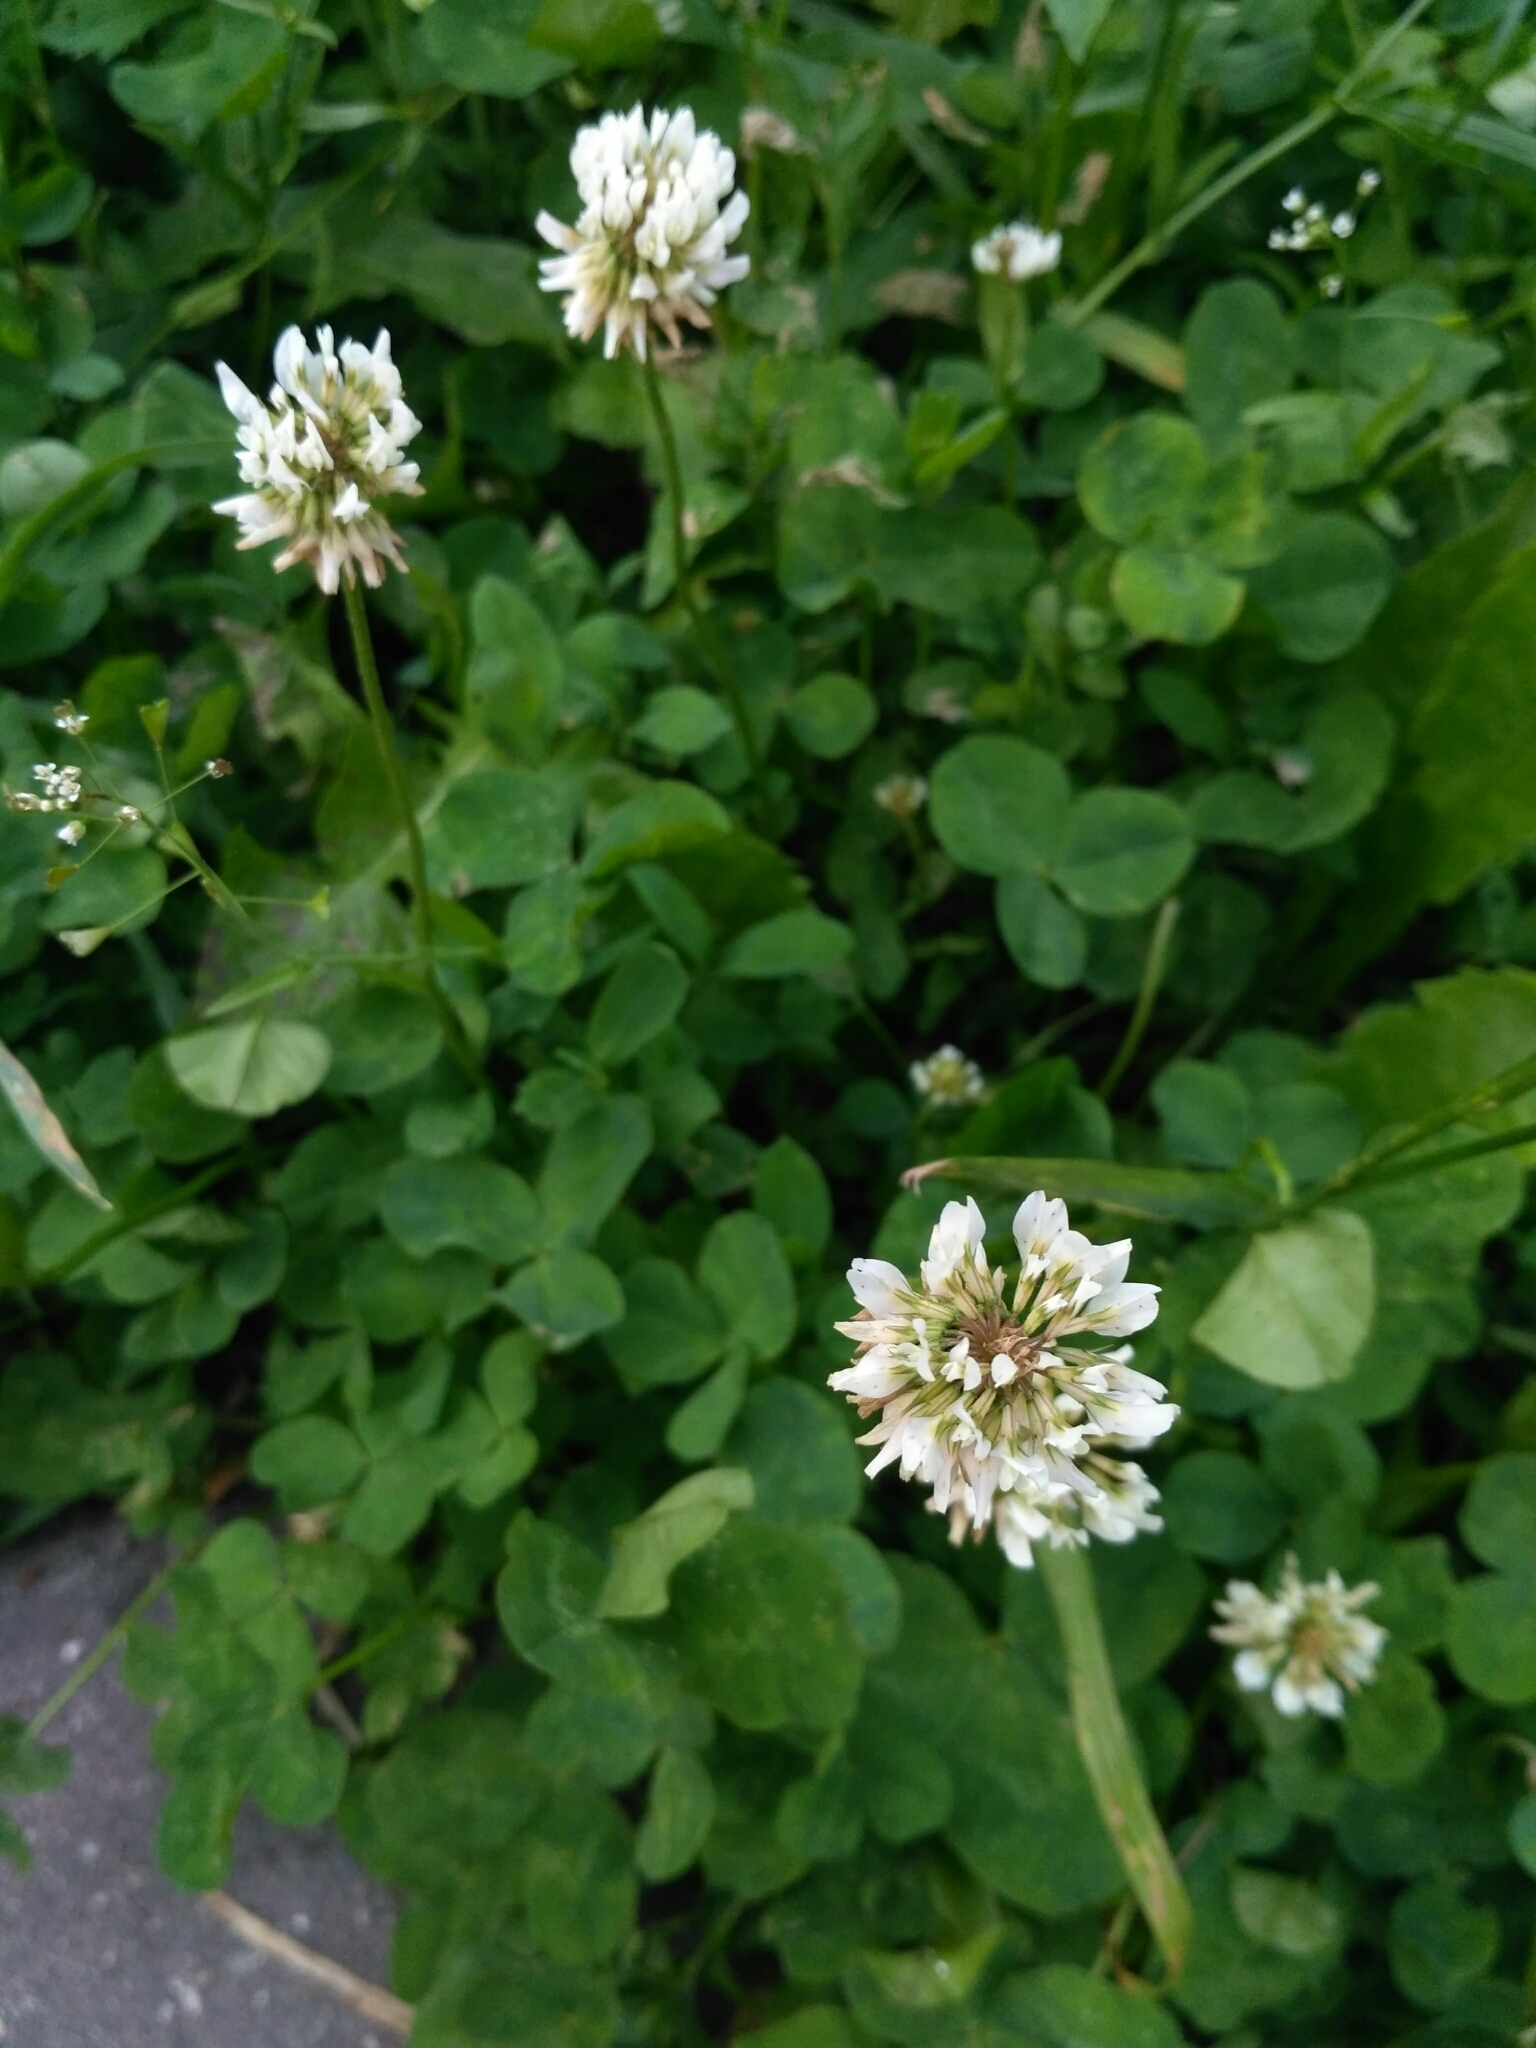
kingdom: Plantae
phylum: Tracheophyta
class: Magnoliopsida
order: Fabales
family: Fabaceae
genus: Trifolium
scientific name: Trifolium repens
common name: White clover
